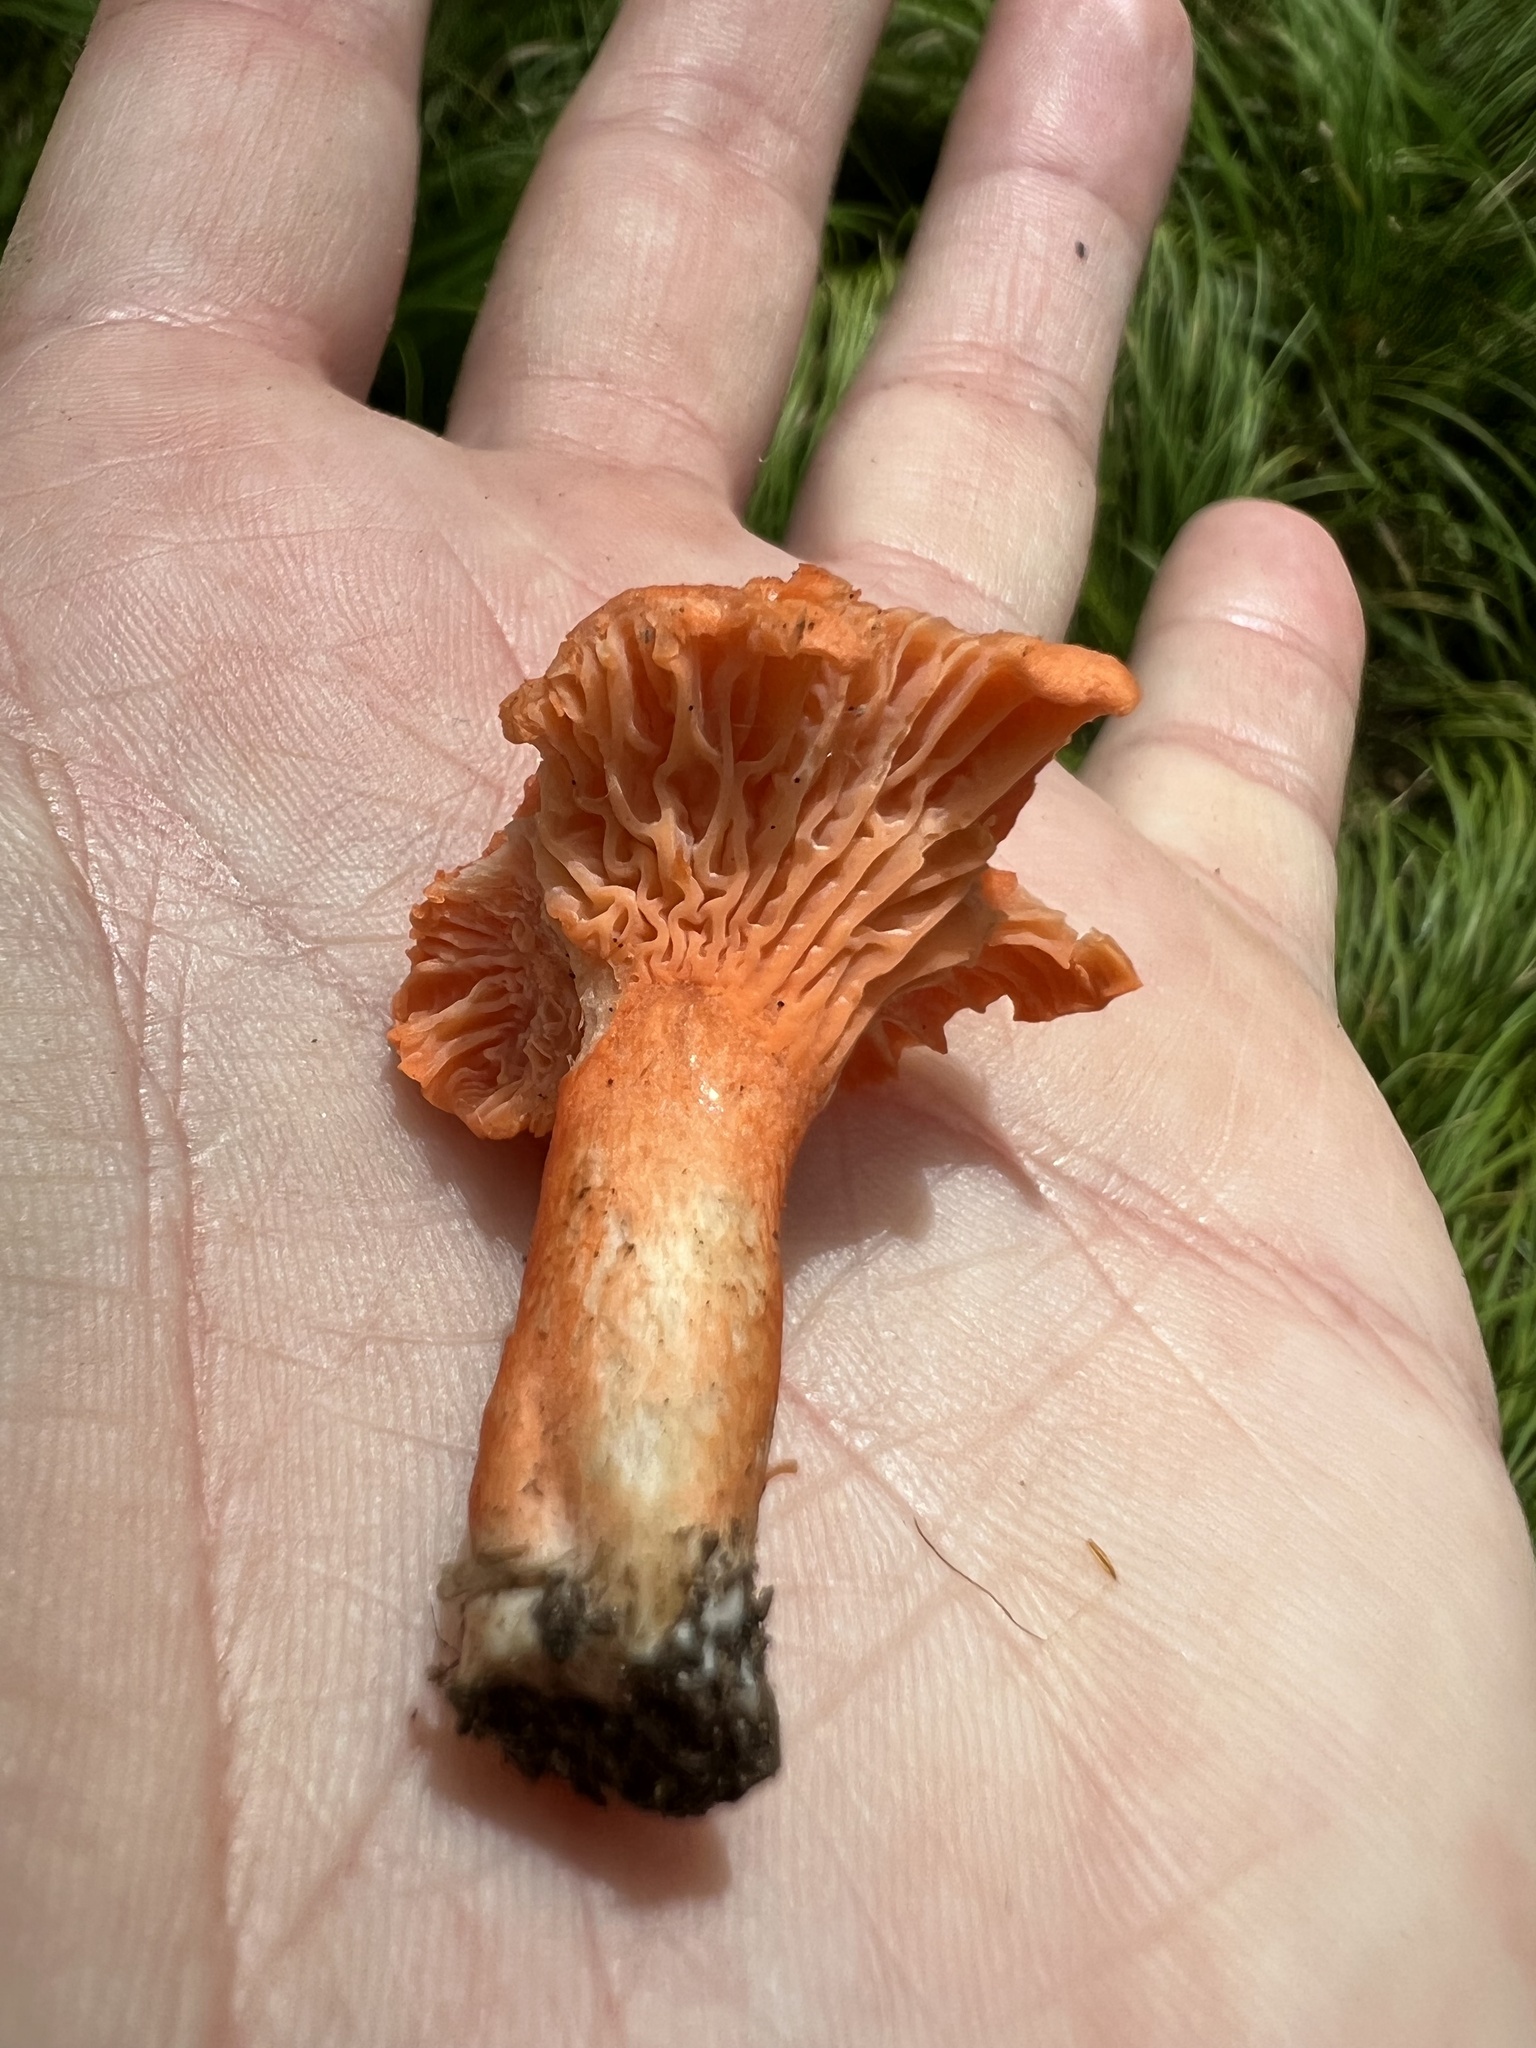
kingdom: Fungi
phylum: Basidiomycota
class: Agaricomycetes
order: Cantharellales
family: Hydnaceae
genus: Cantharellus
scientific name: Cantharellus cinnabarinus
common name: Cinnabar chanterelle
